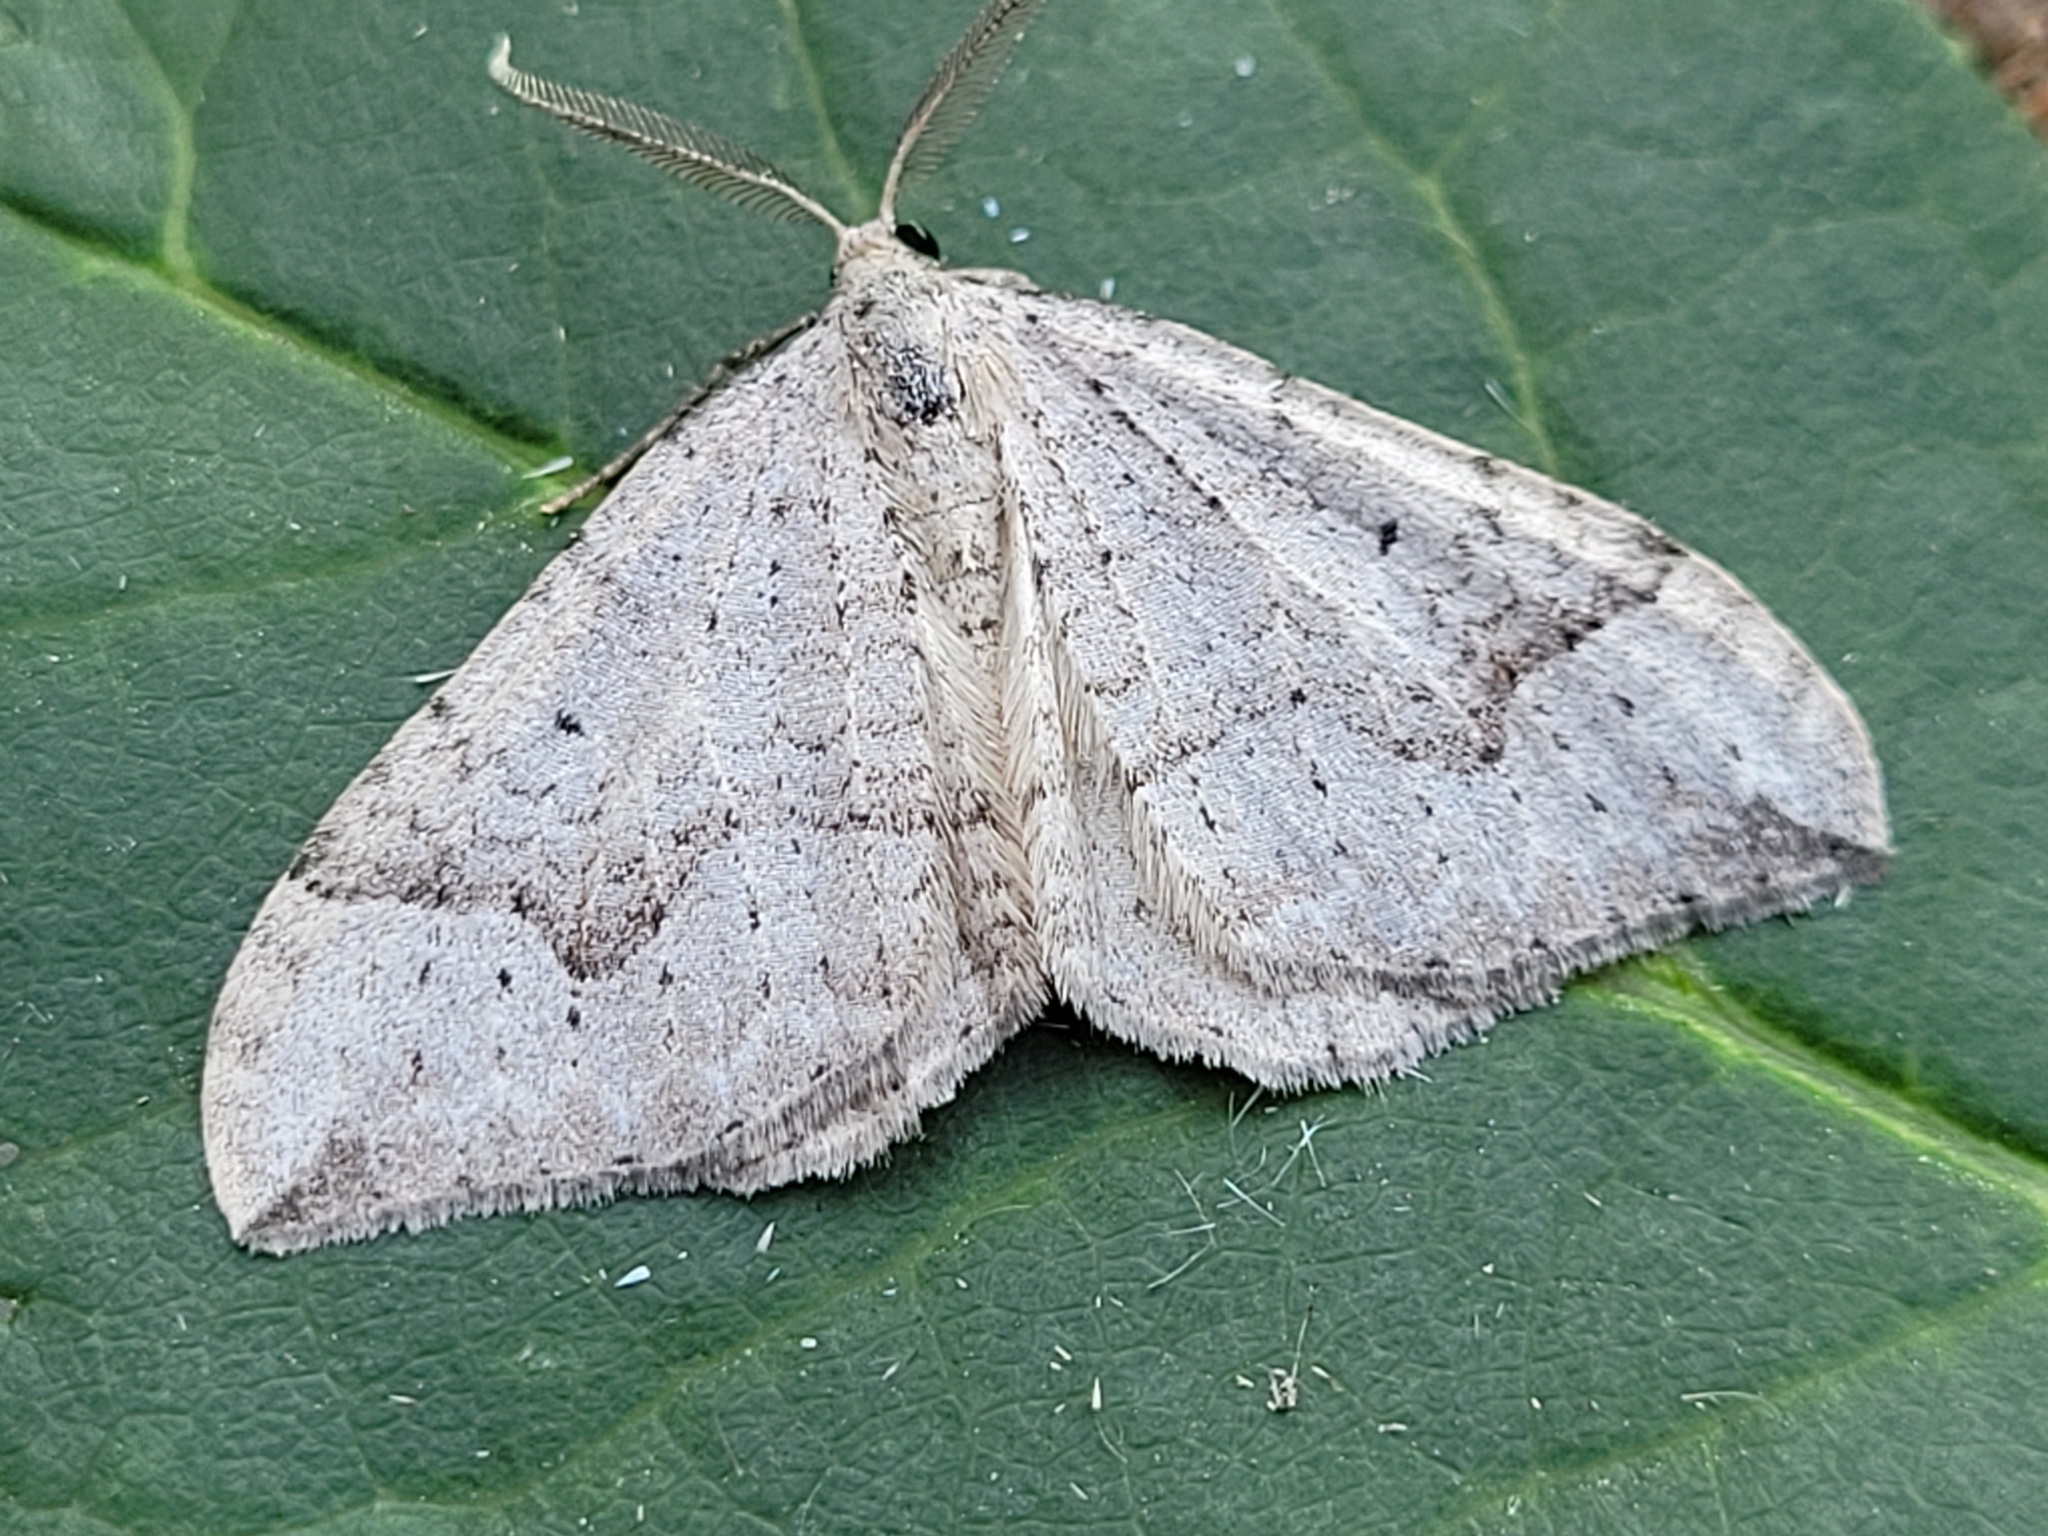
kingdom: Animalia
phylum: Arthropoda
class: Insecta
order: Lepidoptera
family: Geometridae
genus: Zenophleps
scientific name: Zenophleps alpinata
